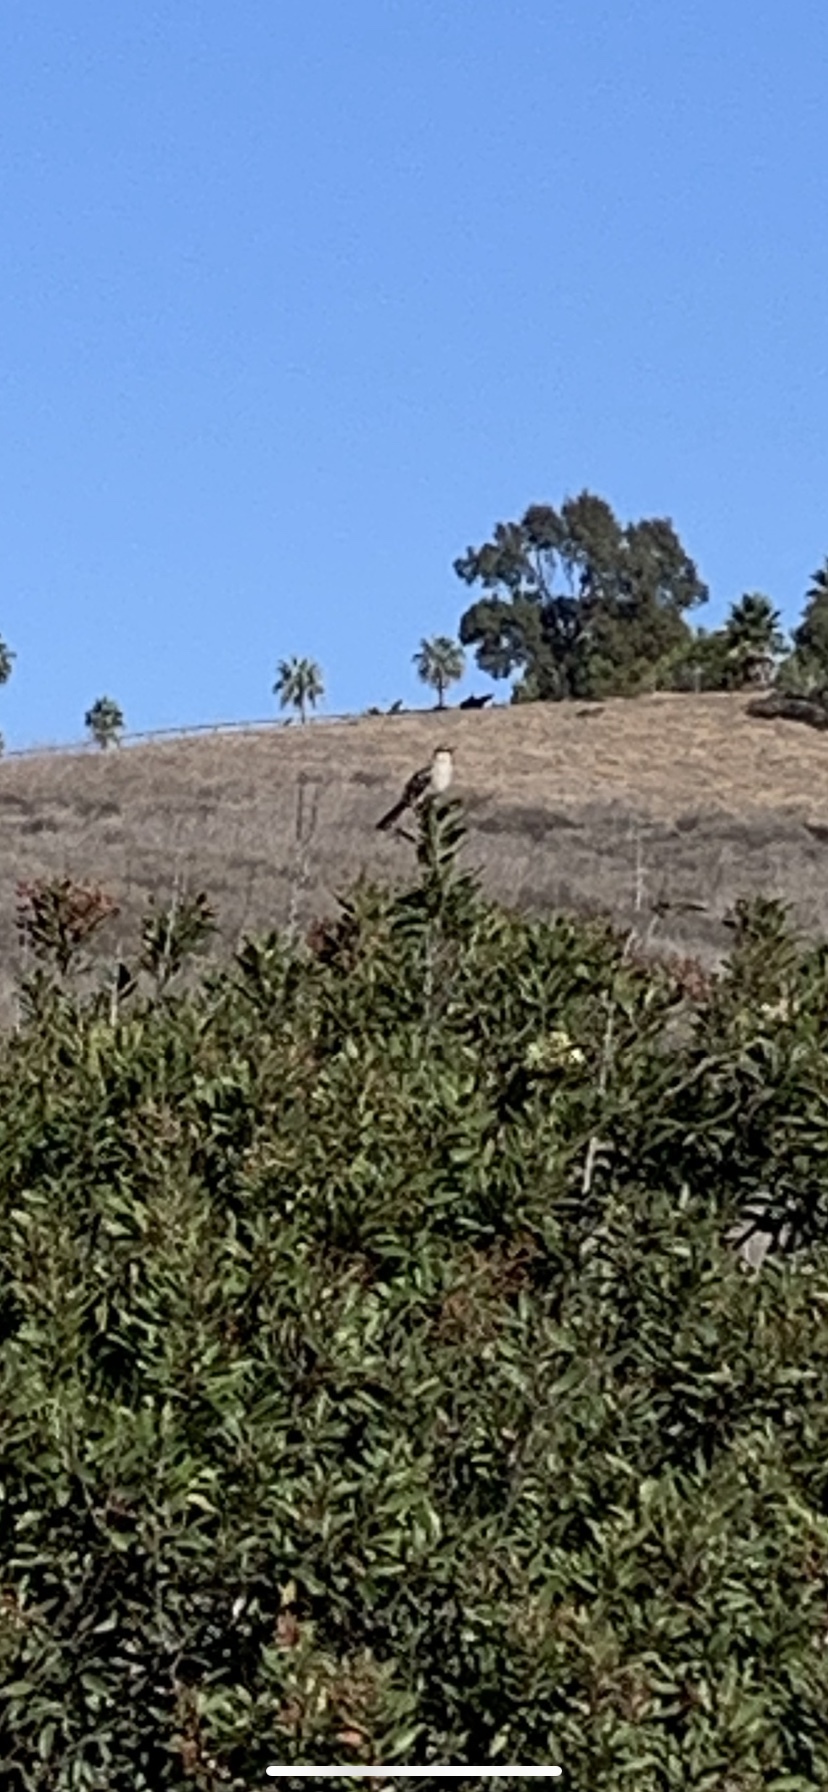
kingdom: Animalia
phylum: Chordata
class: Aves
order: Passeriformes
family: Mimidae
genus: Mimus
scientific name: Mimus polyglottos
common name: Northern mockingbird
